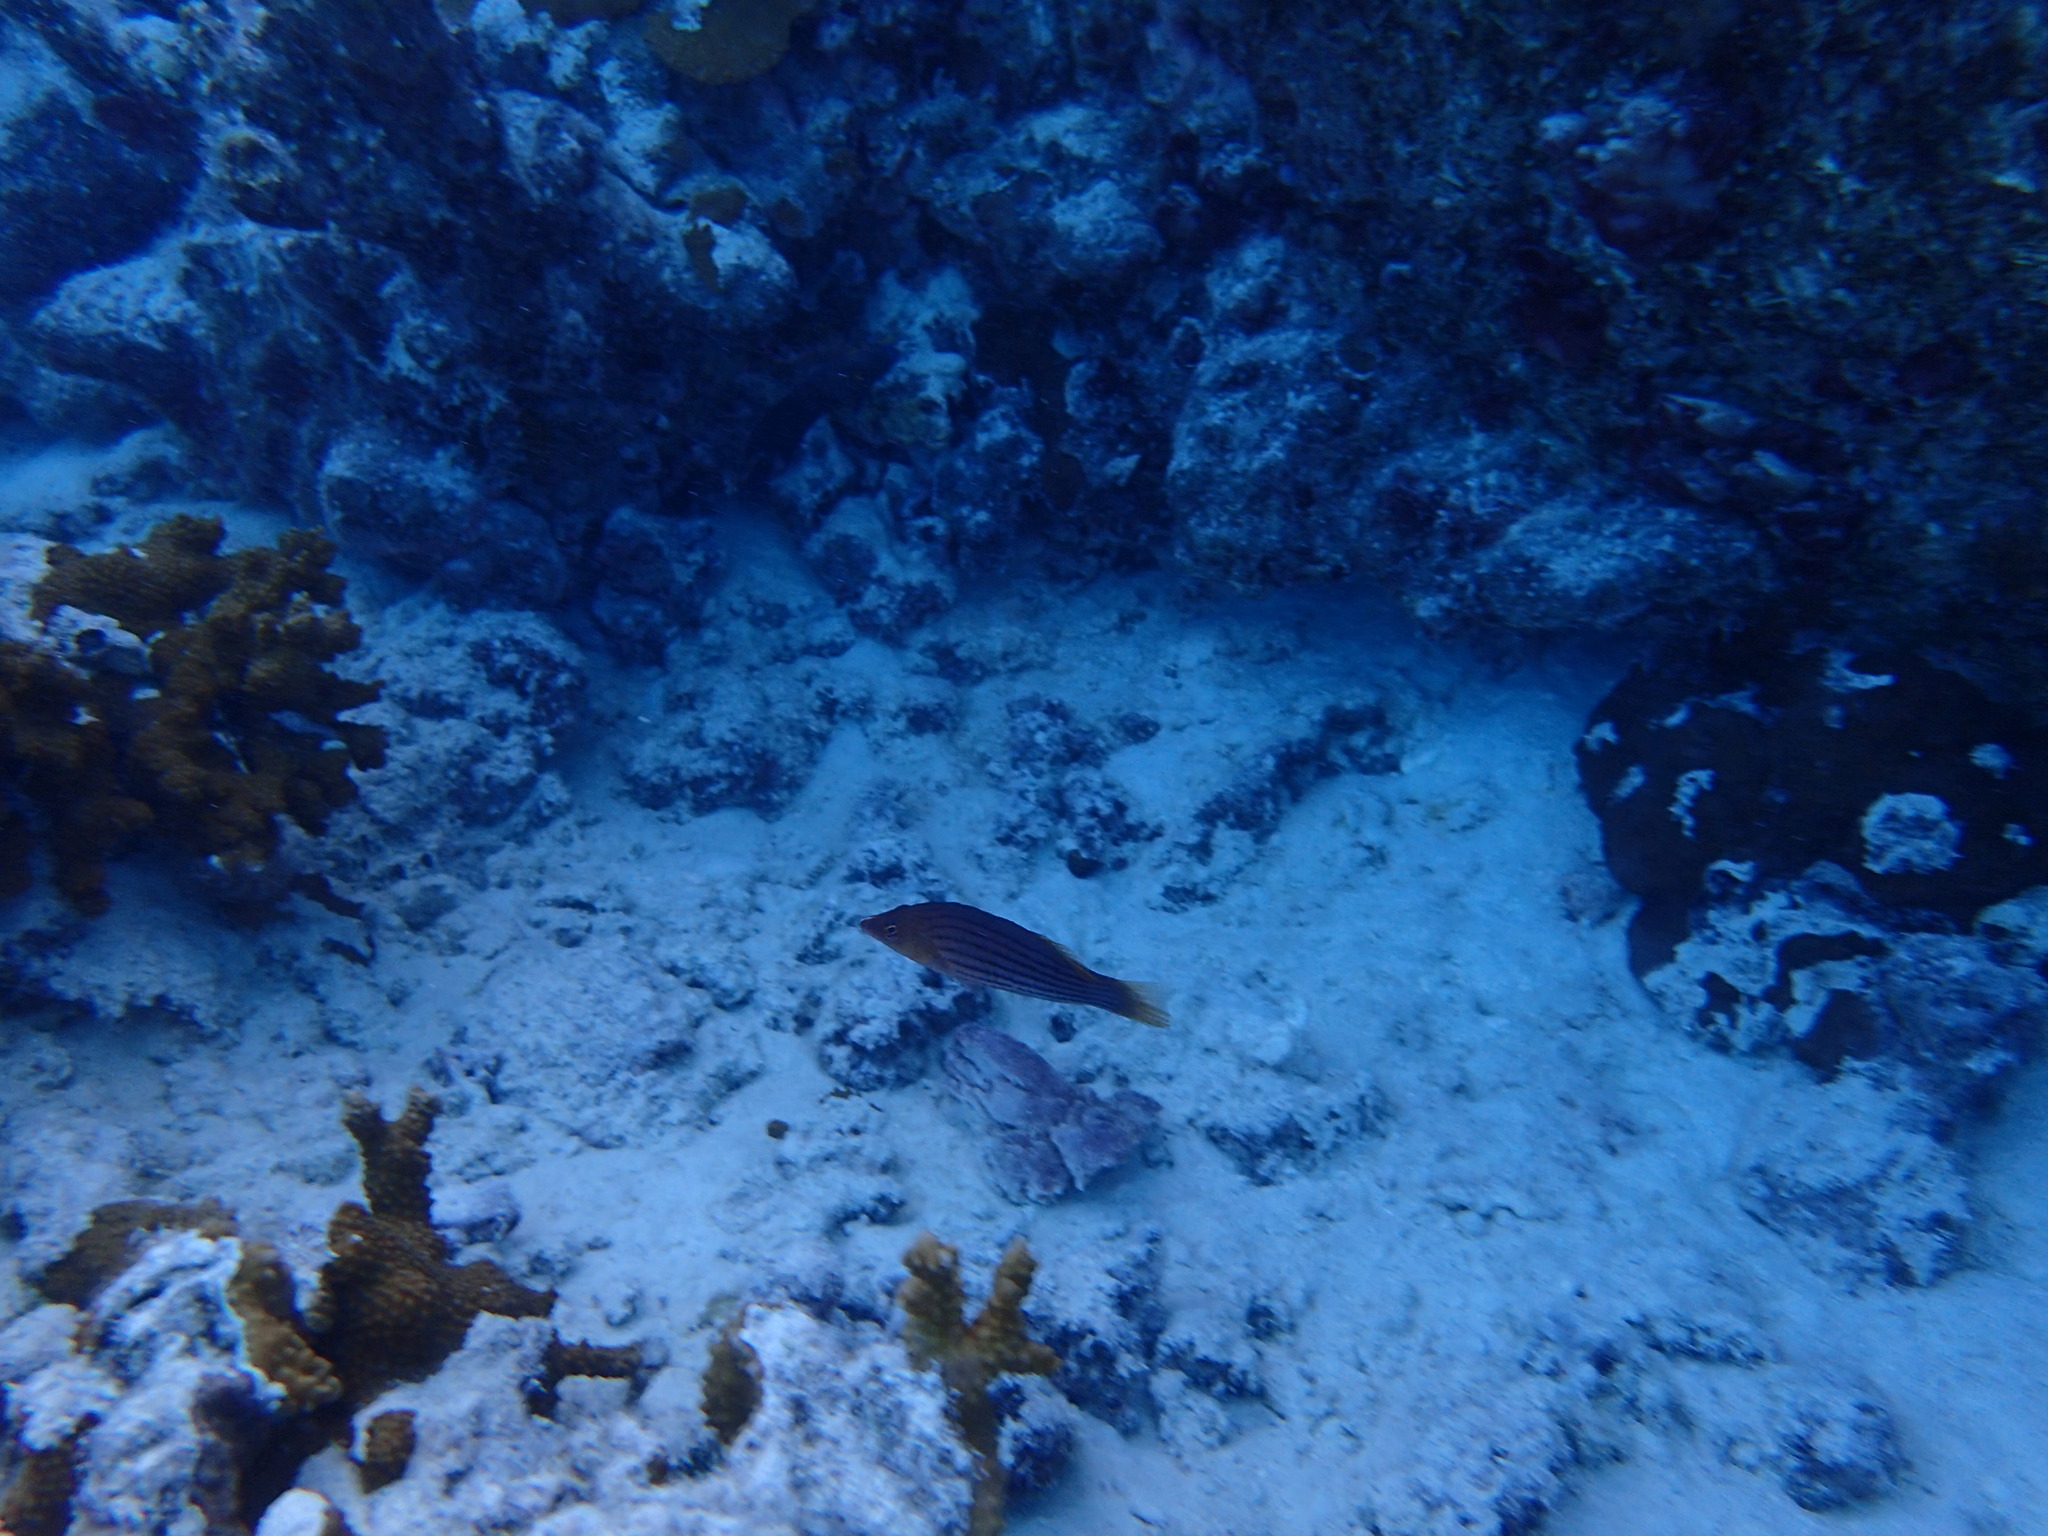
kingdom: Animalia
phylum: Chordata
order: Perciformes
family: Labridae
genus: Pseudocheilinus
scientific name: Pseudocheilinus octotaenia
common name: Eightline wrasse
